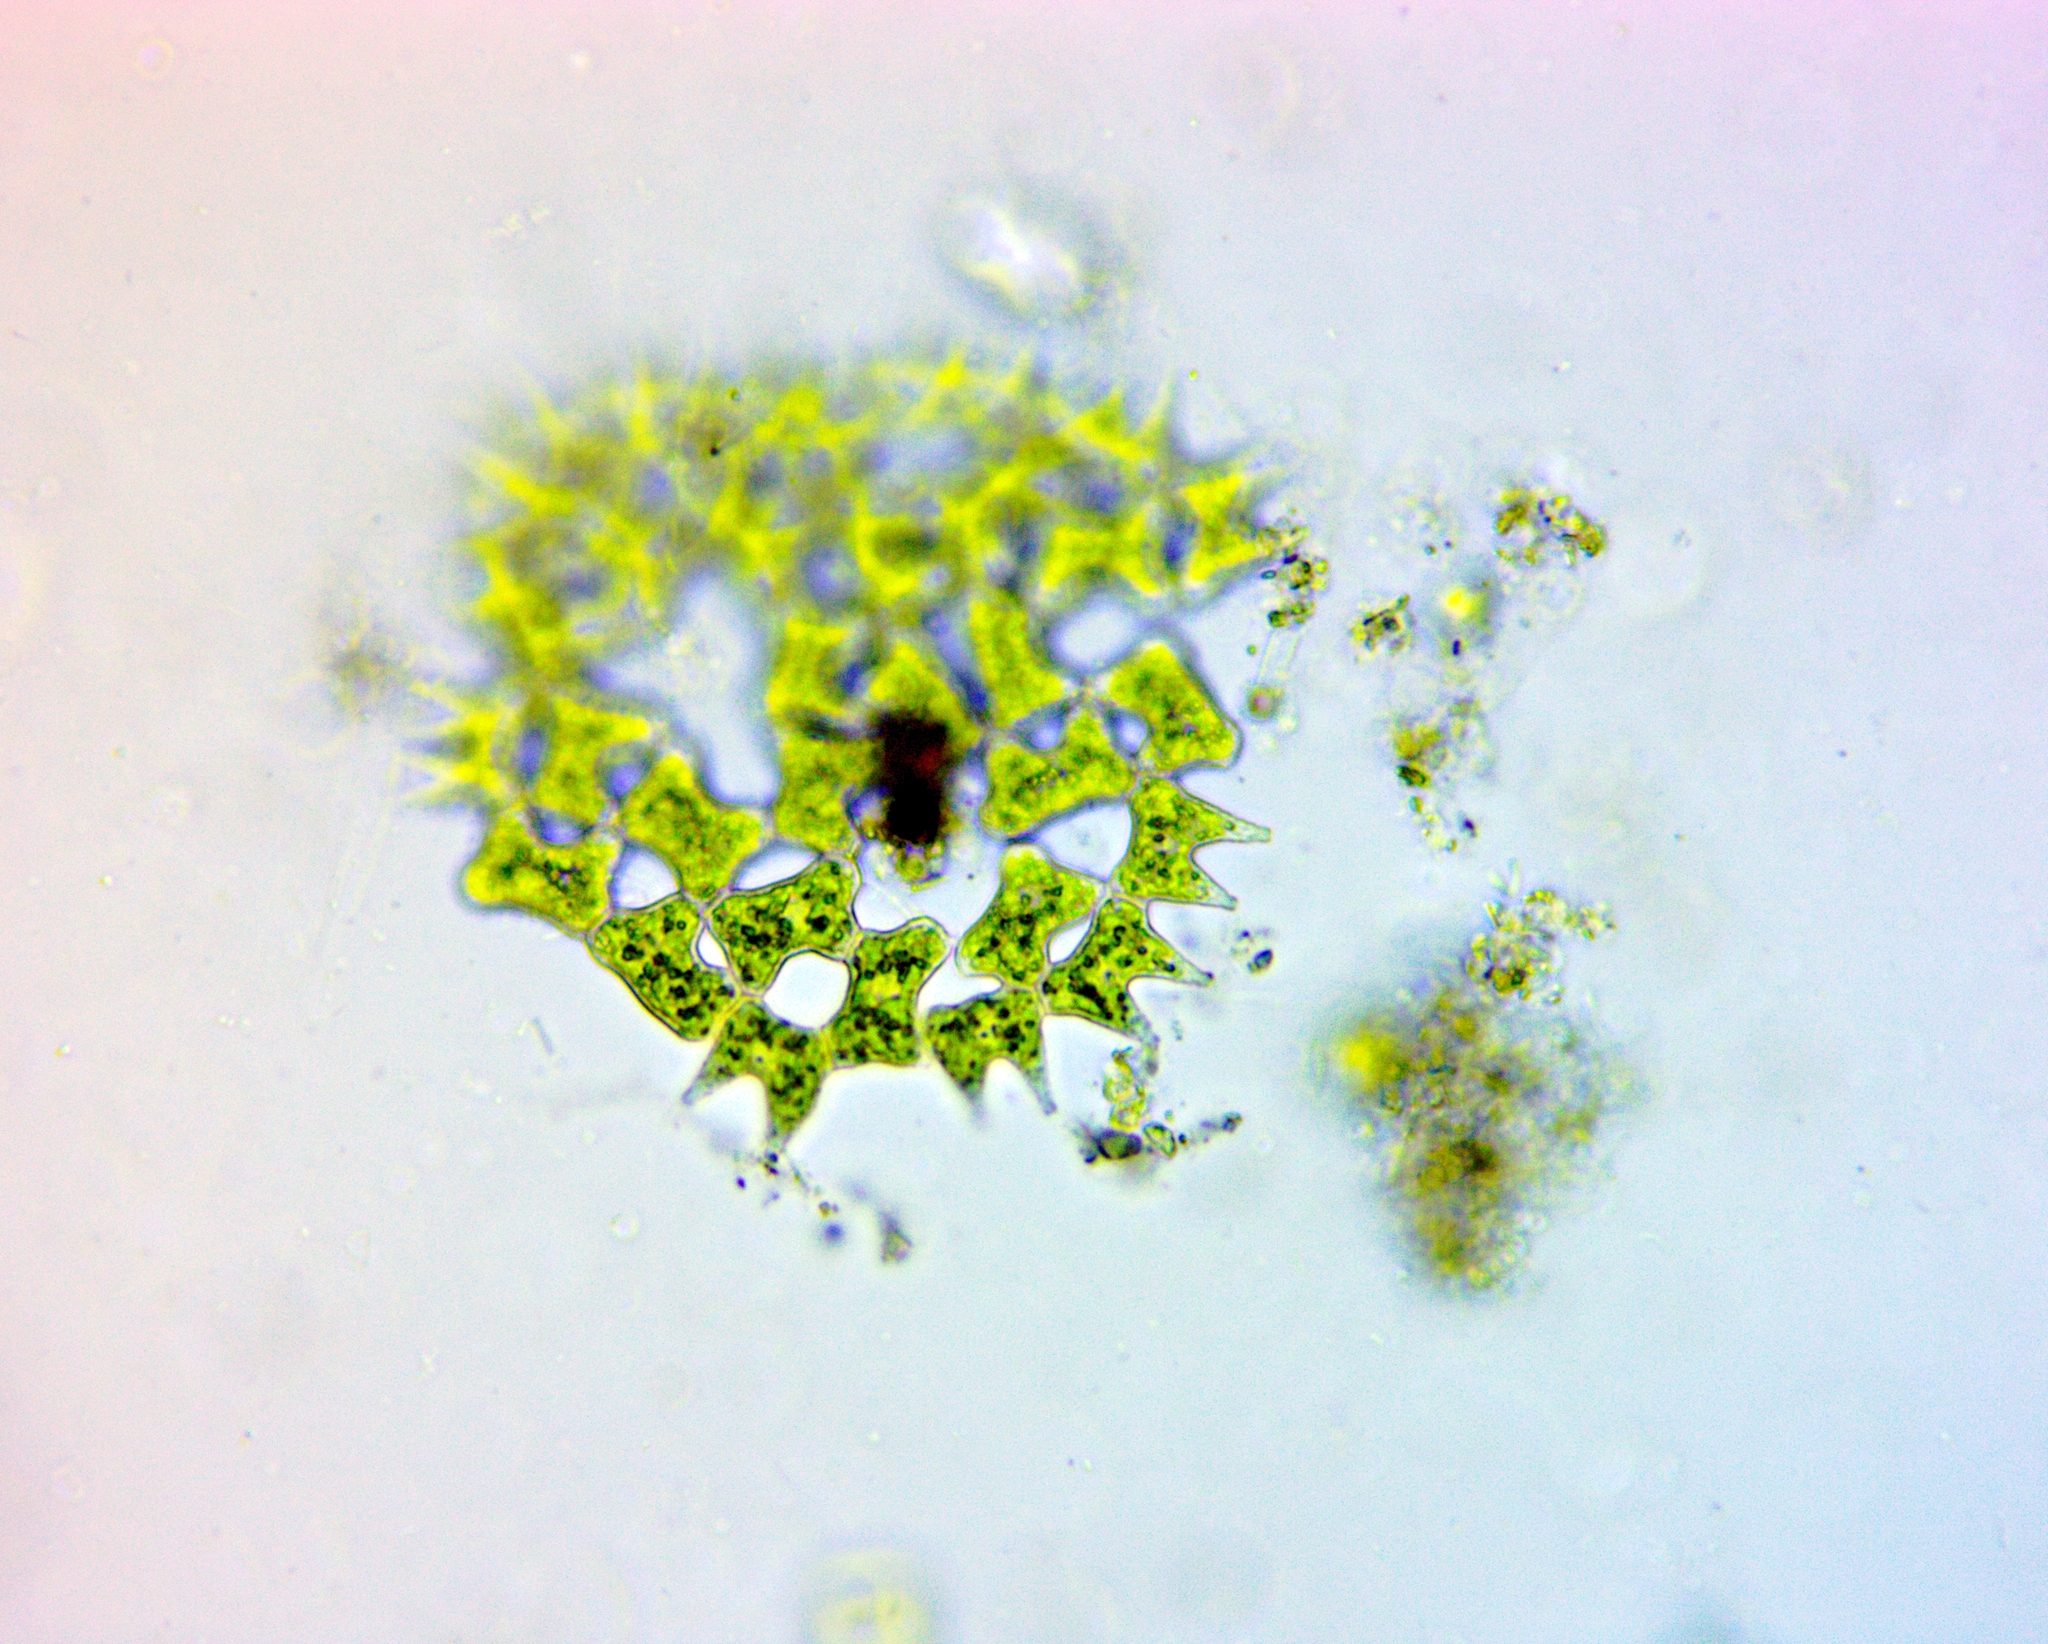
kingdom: Plantae
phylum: Chlorophyta
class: Chlorophyceae
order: Sphaeropleales
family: Hydrodictyaceae
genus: Pediastrum
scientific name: Pediastrum duplex
